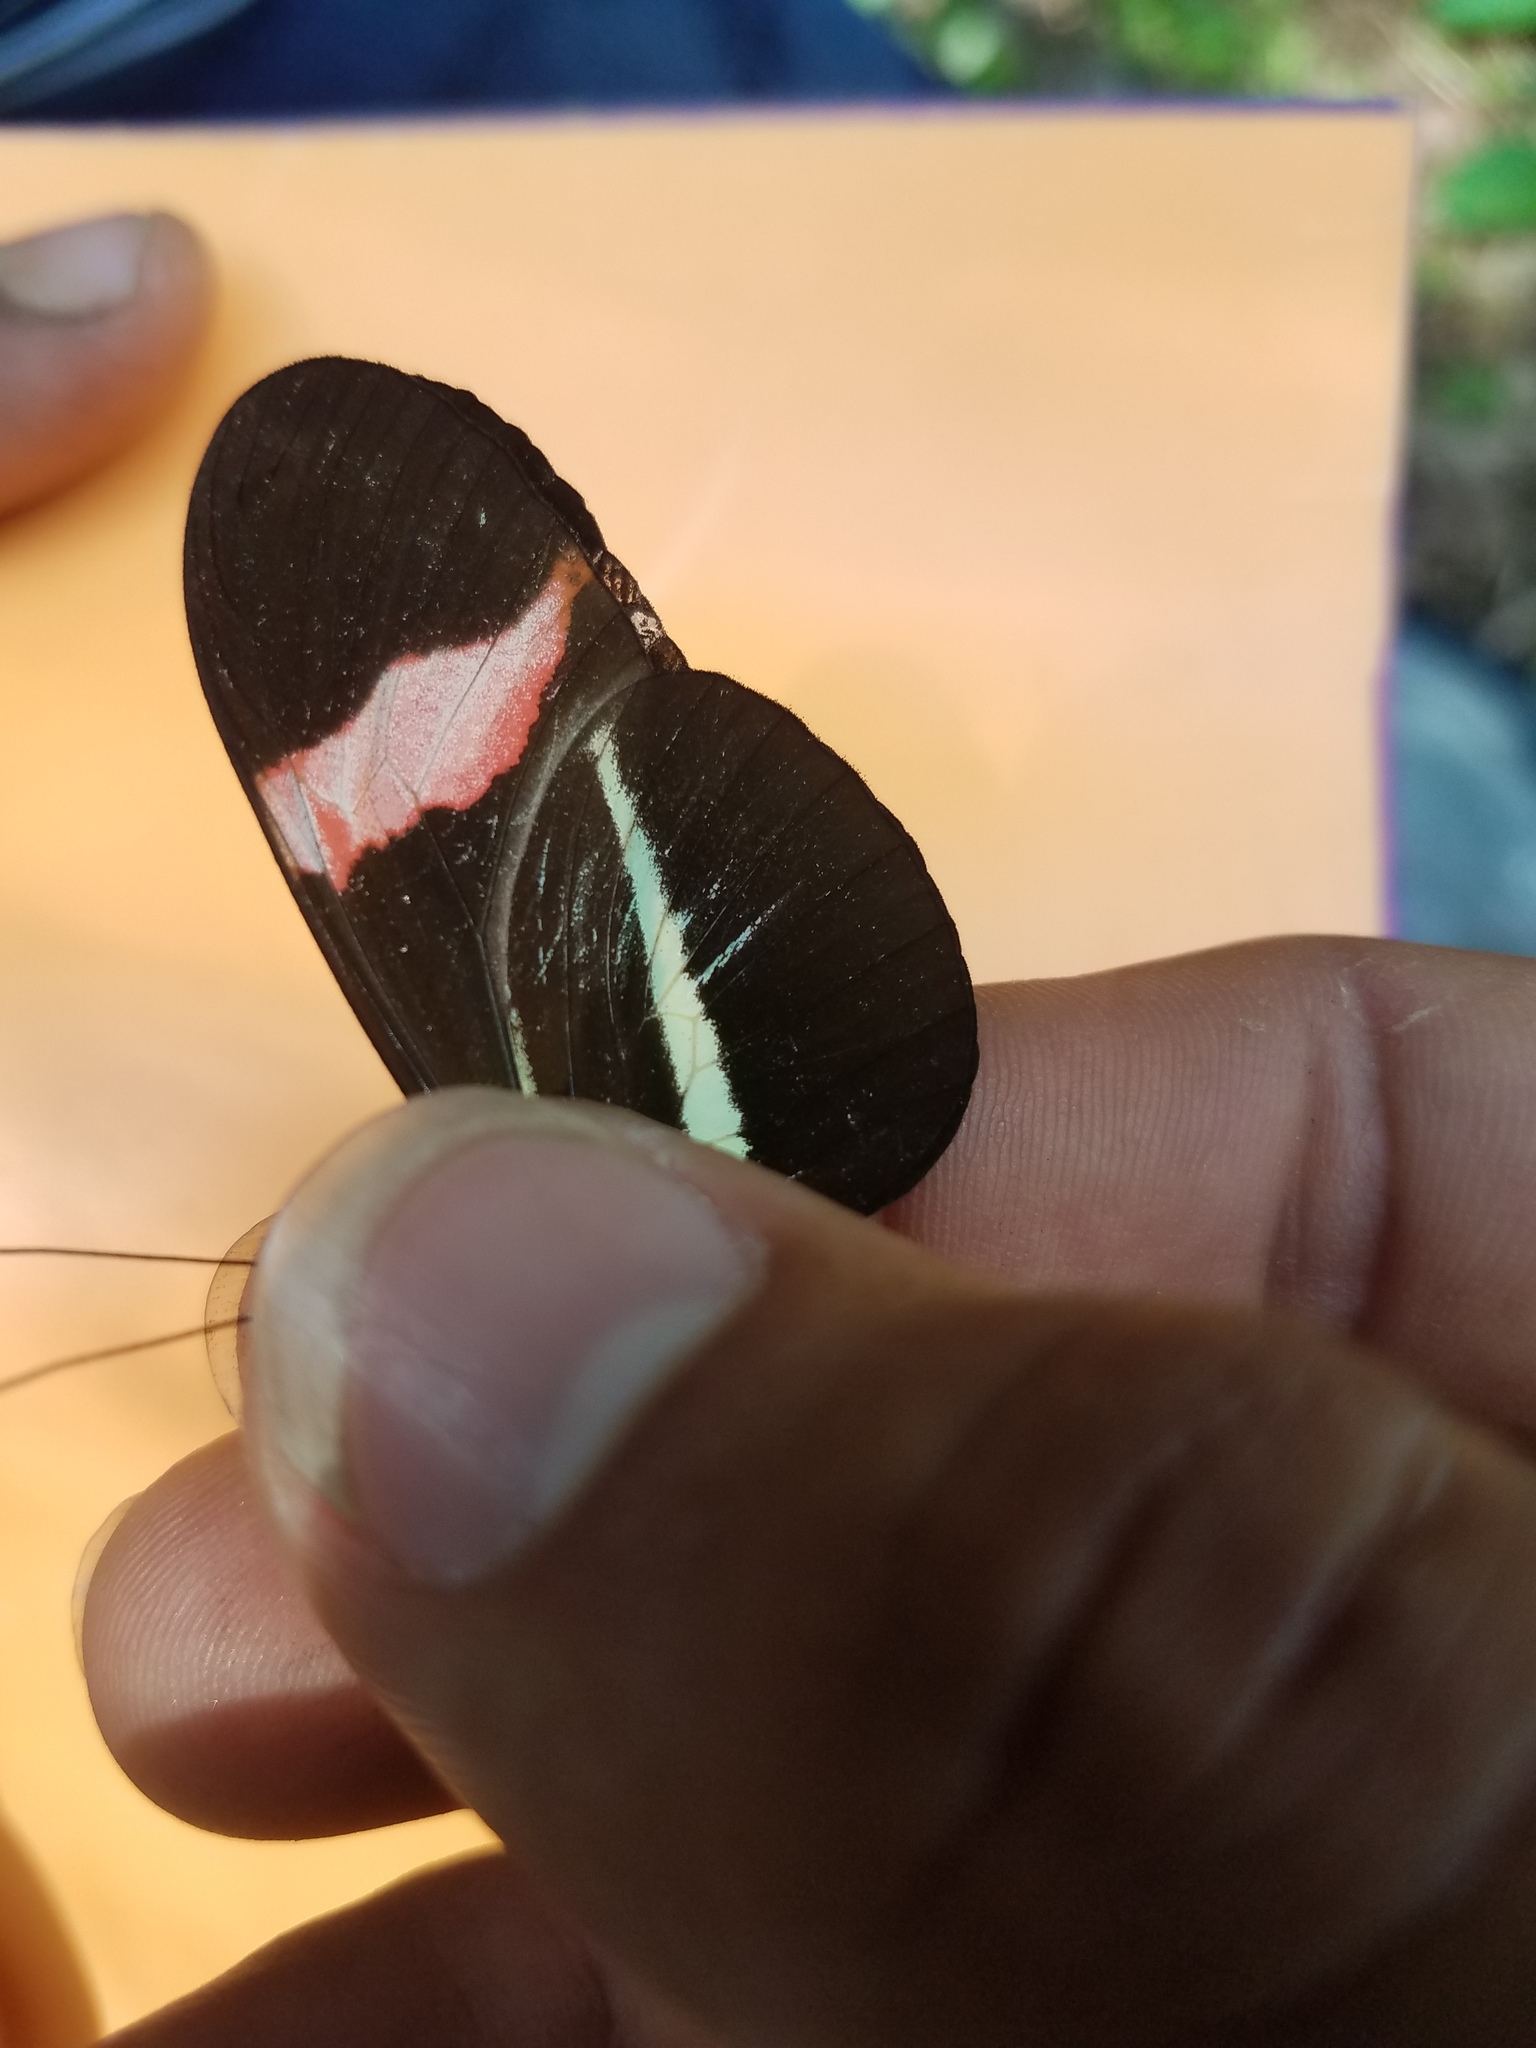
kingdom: Animalia
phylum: Arthropoda
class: Insecta
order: Lepidoptera
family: Nymphalidae
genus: Tirumala
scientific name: Tirumala petiverana
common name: Blue monarch
